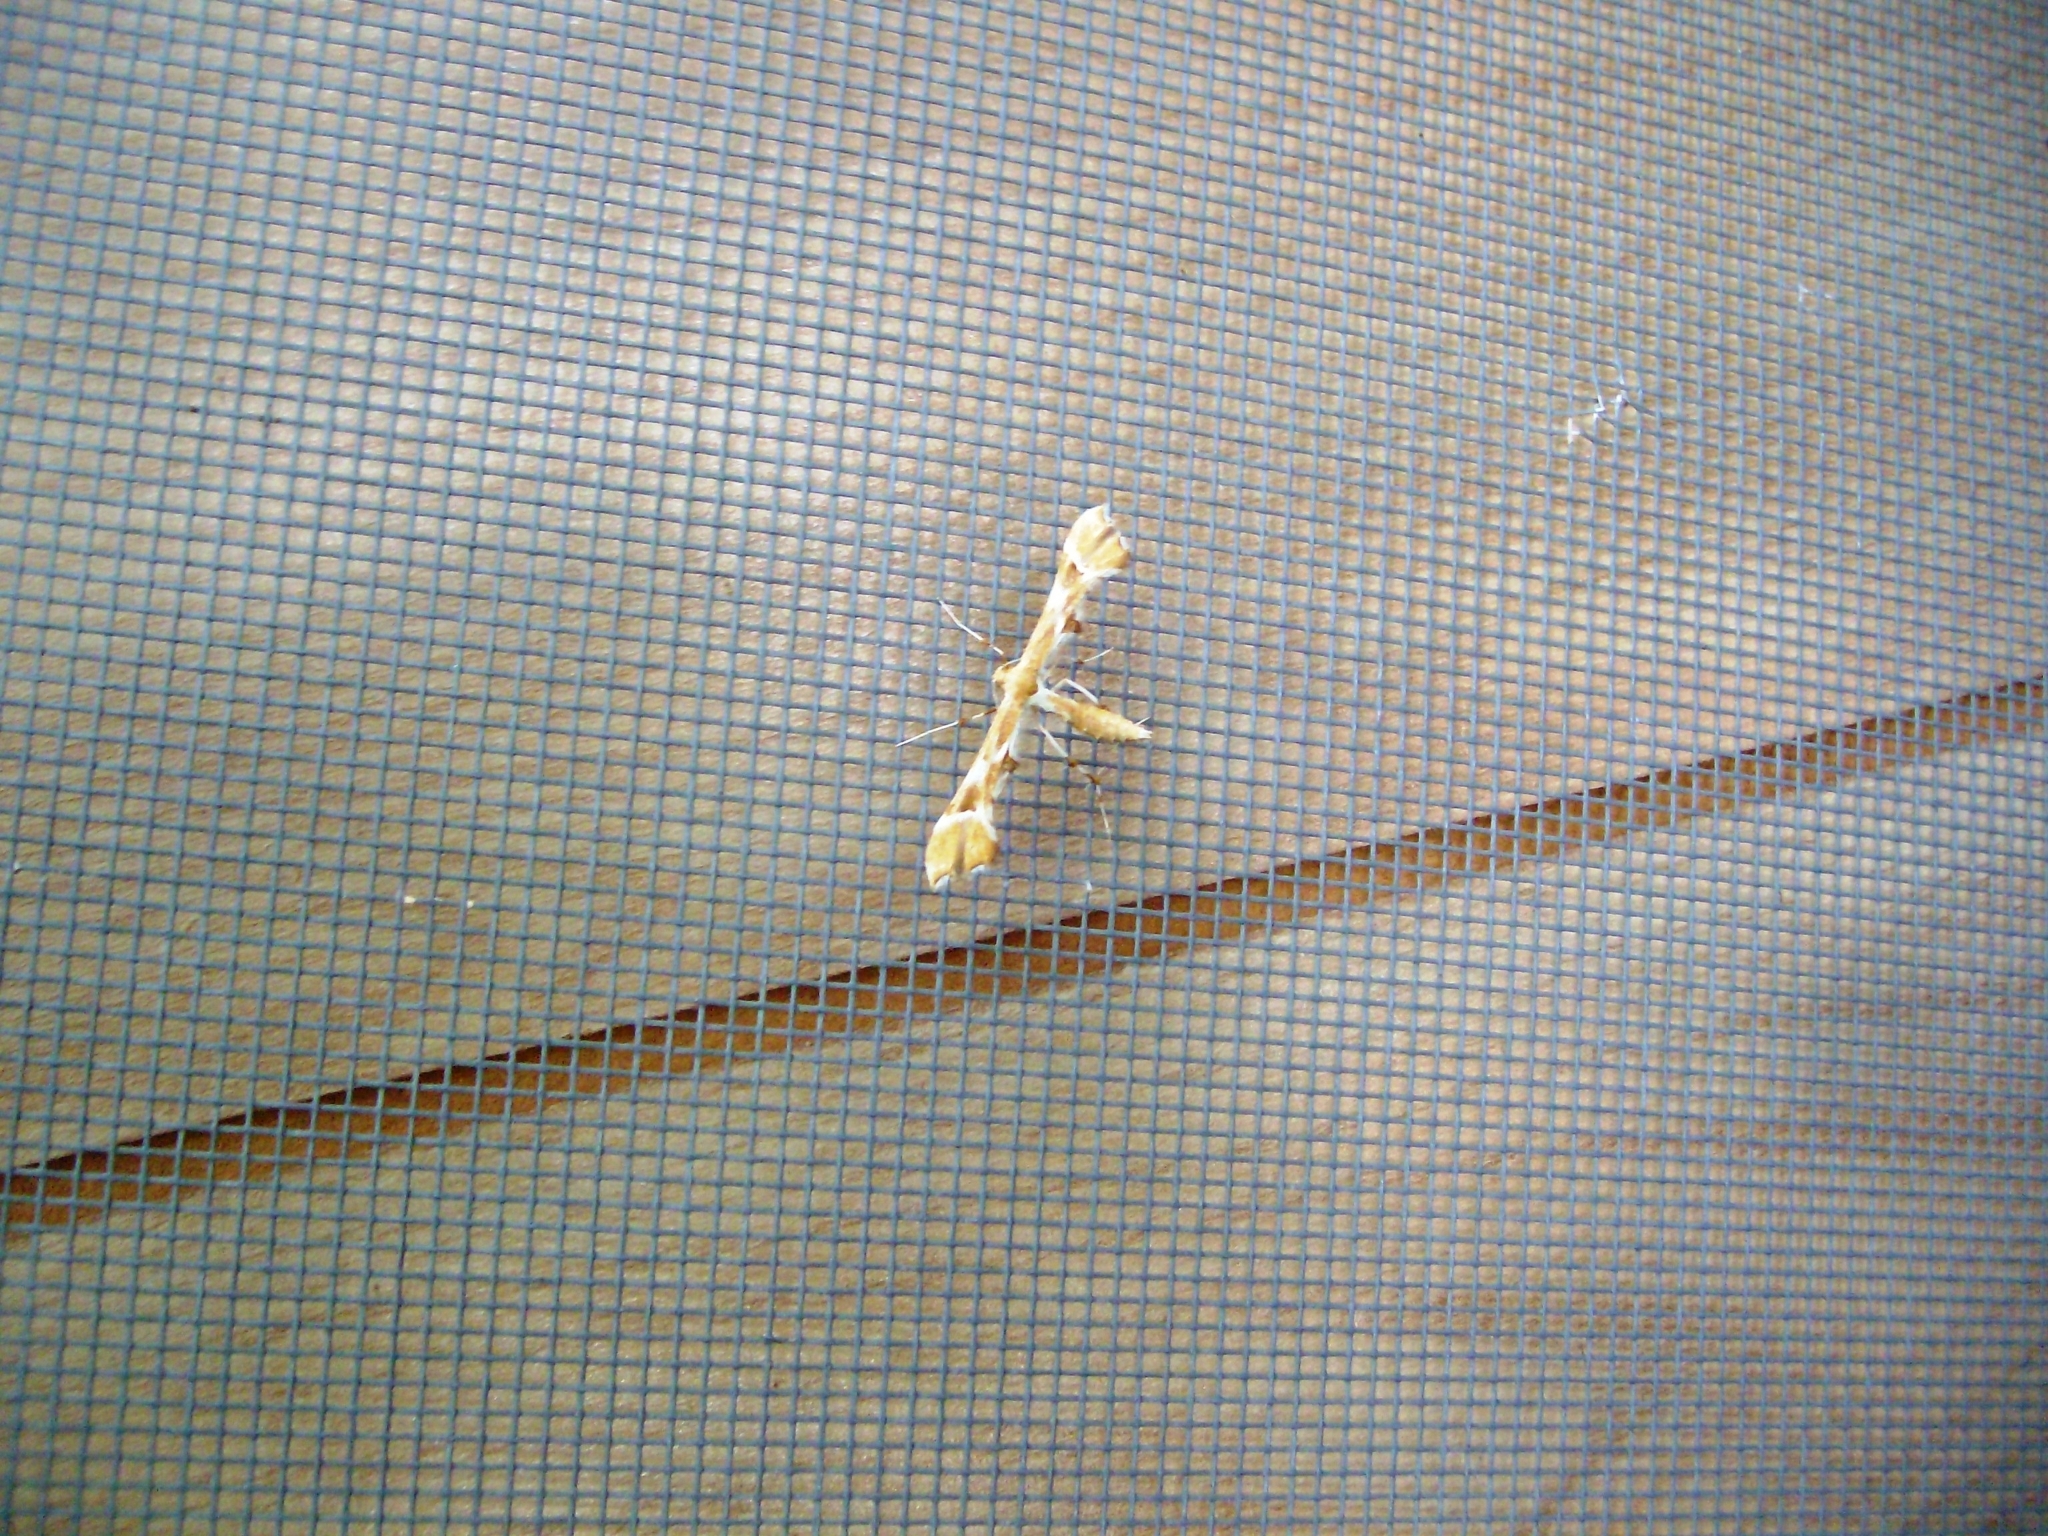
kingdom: Animalia
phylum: Arthropoda
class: Insecta
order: Lepidoptera
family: Pterophoridae
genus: Cnaemidophorus
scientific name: Cnaemidophorus rhododactyla
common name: Rose plume
